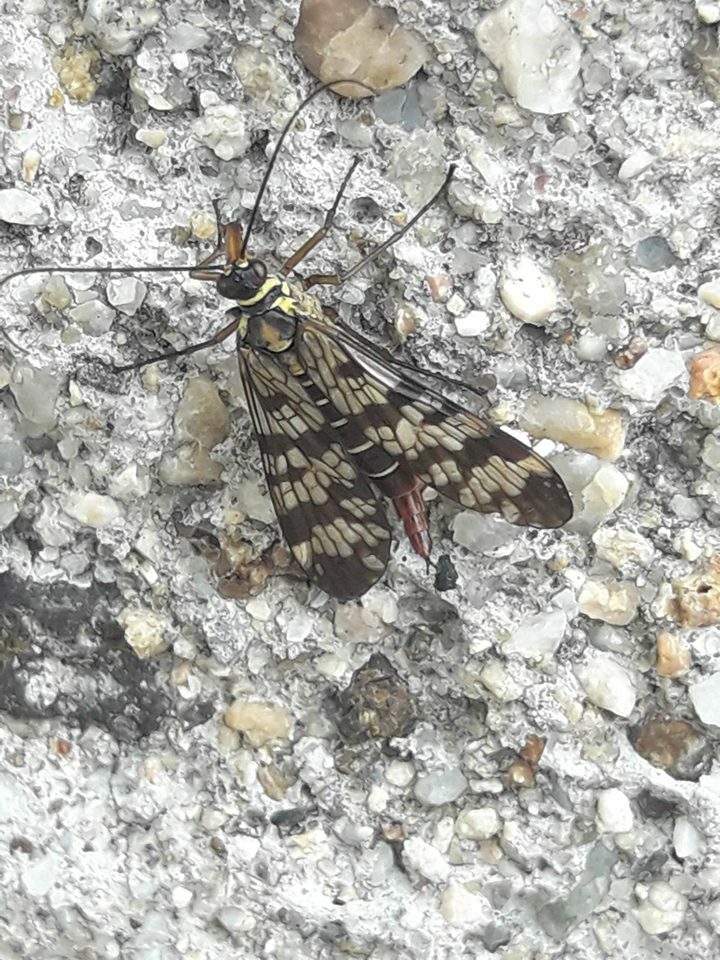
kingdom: Animalia
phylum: Arthropoda
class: Insecta
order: Mecoptera
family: Panorpidae
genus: Panorpa
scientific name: Panorpa communis
